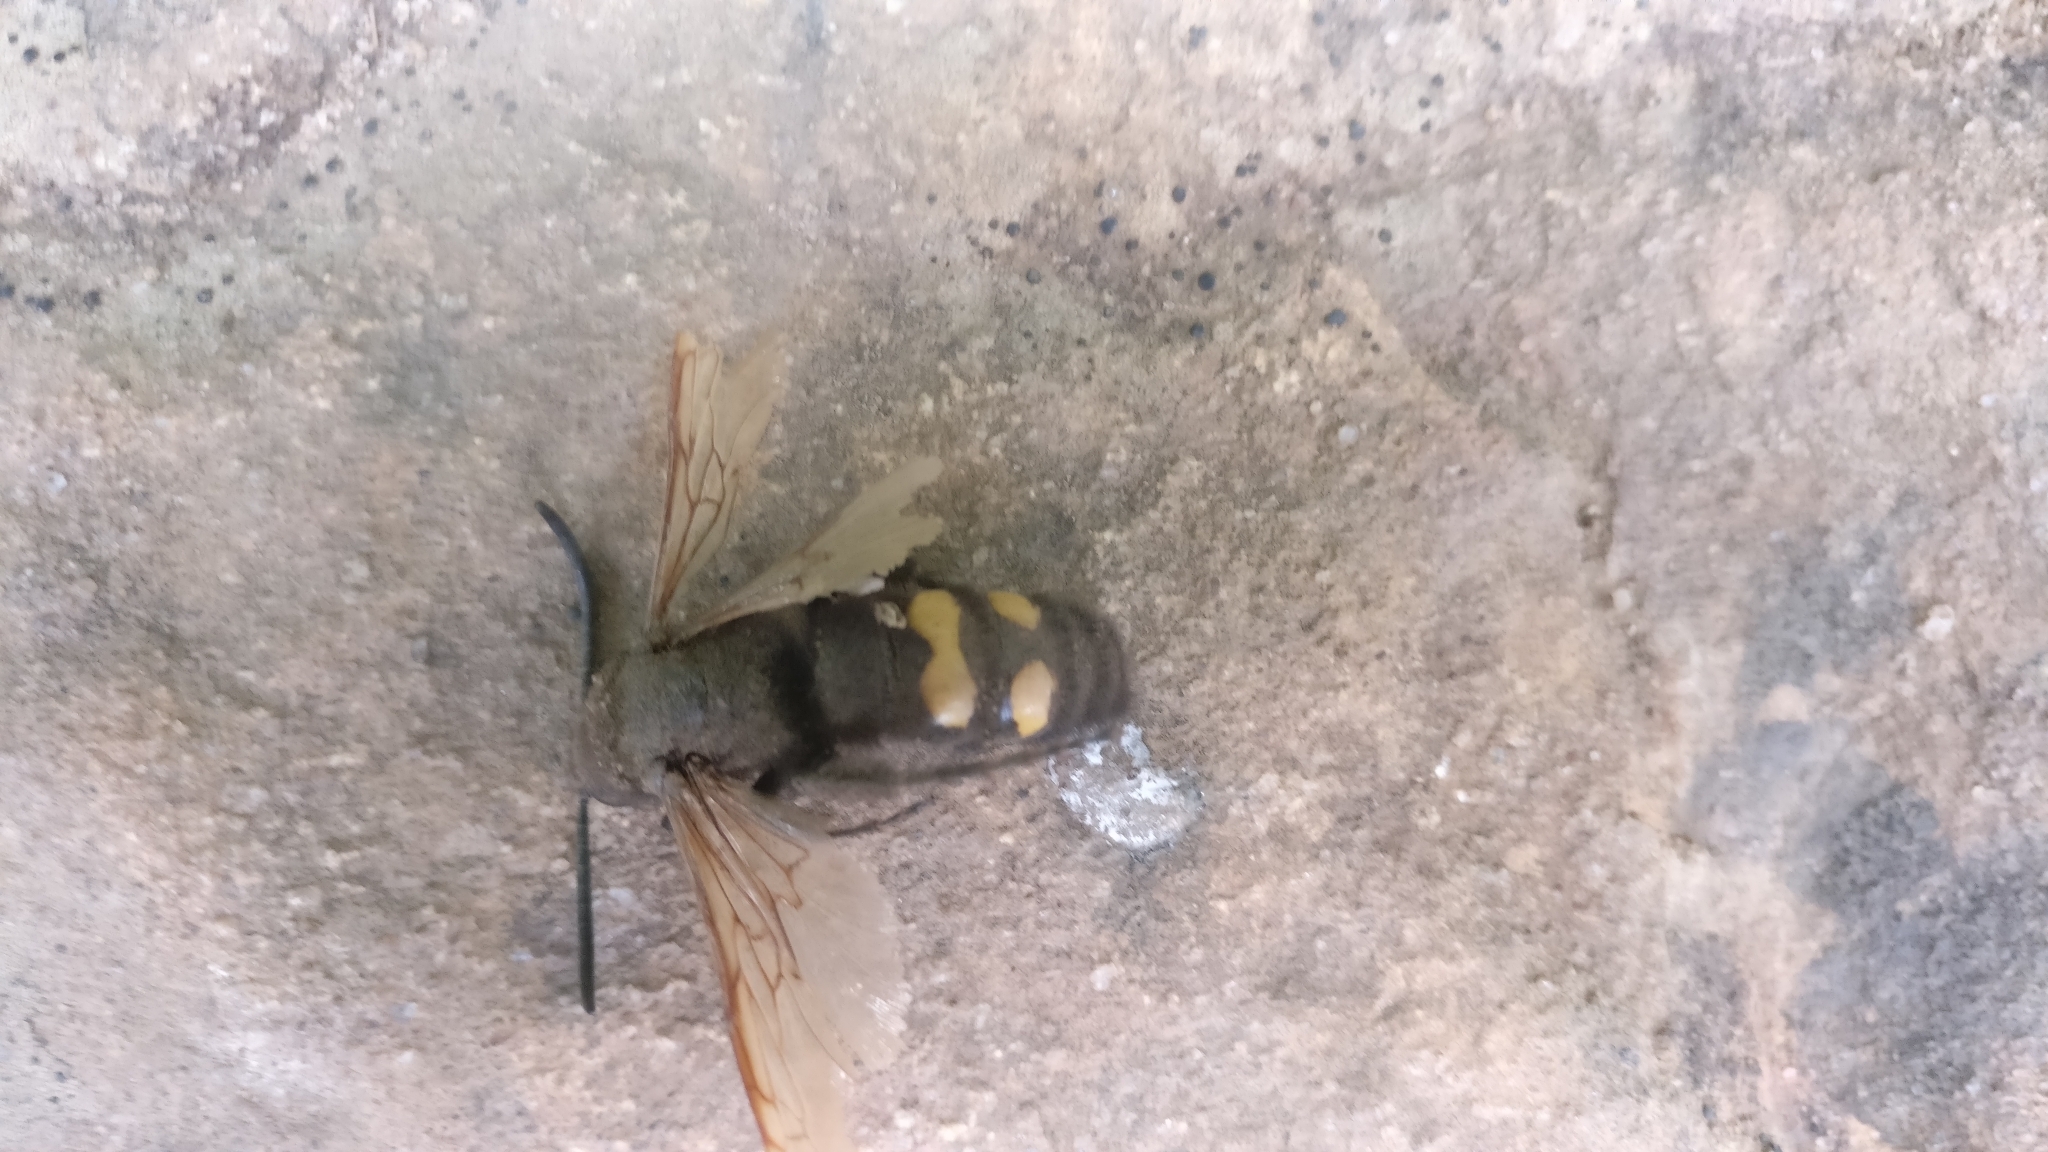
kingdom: Animalia
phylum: Arthropoda
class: Insecta
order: Hymenoptera
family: Scoliidae
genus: Megascolia
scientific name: Megascolia maculata
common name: Mammoth wasp
